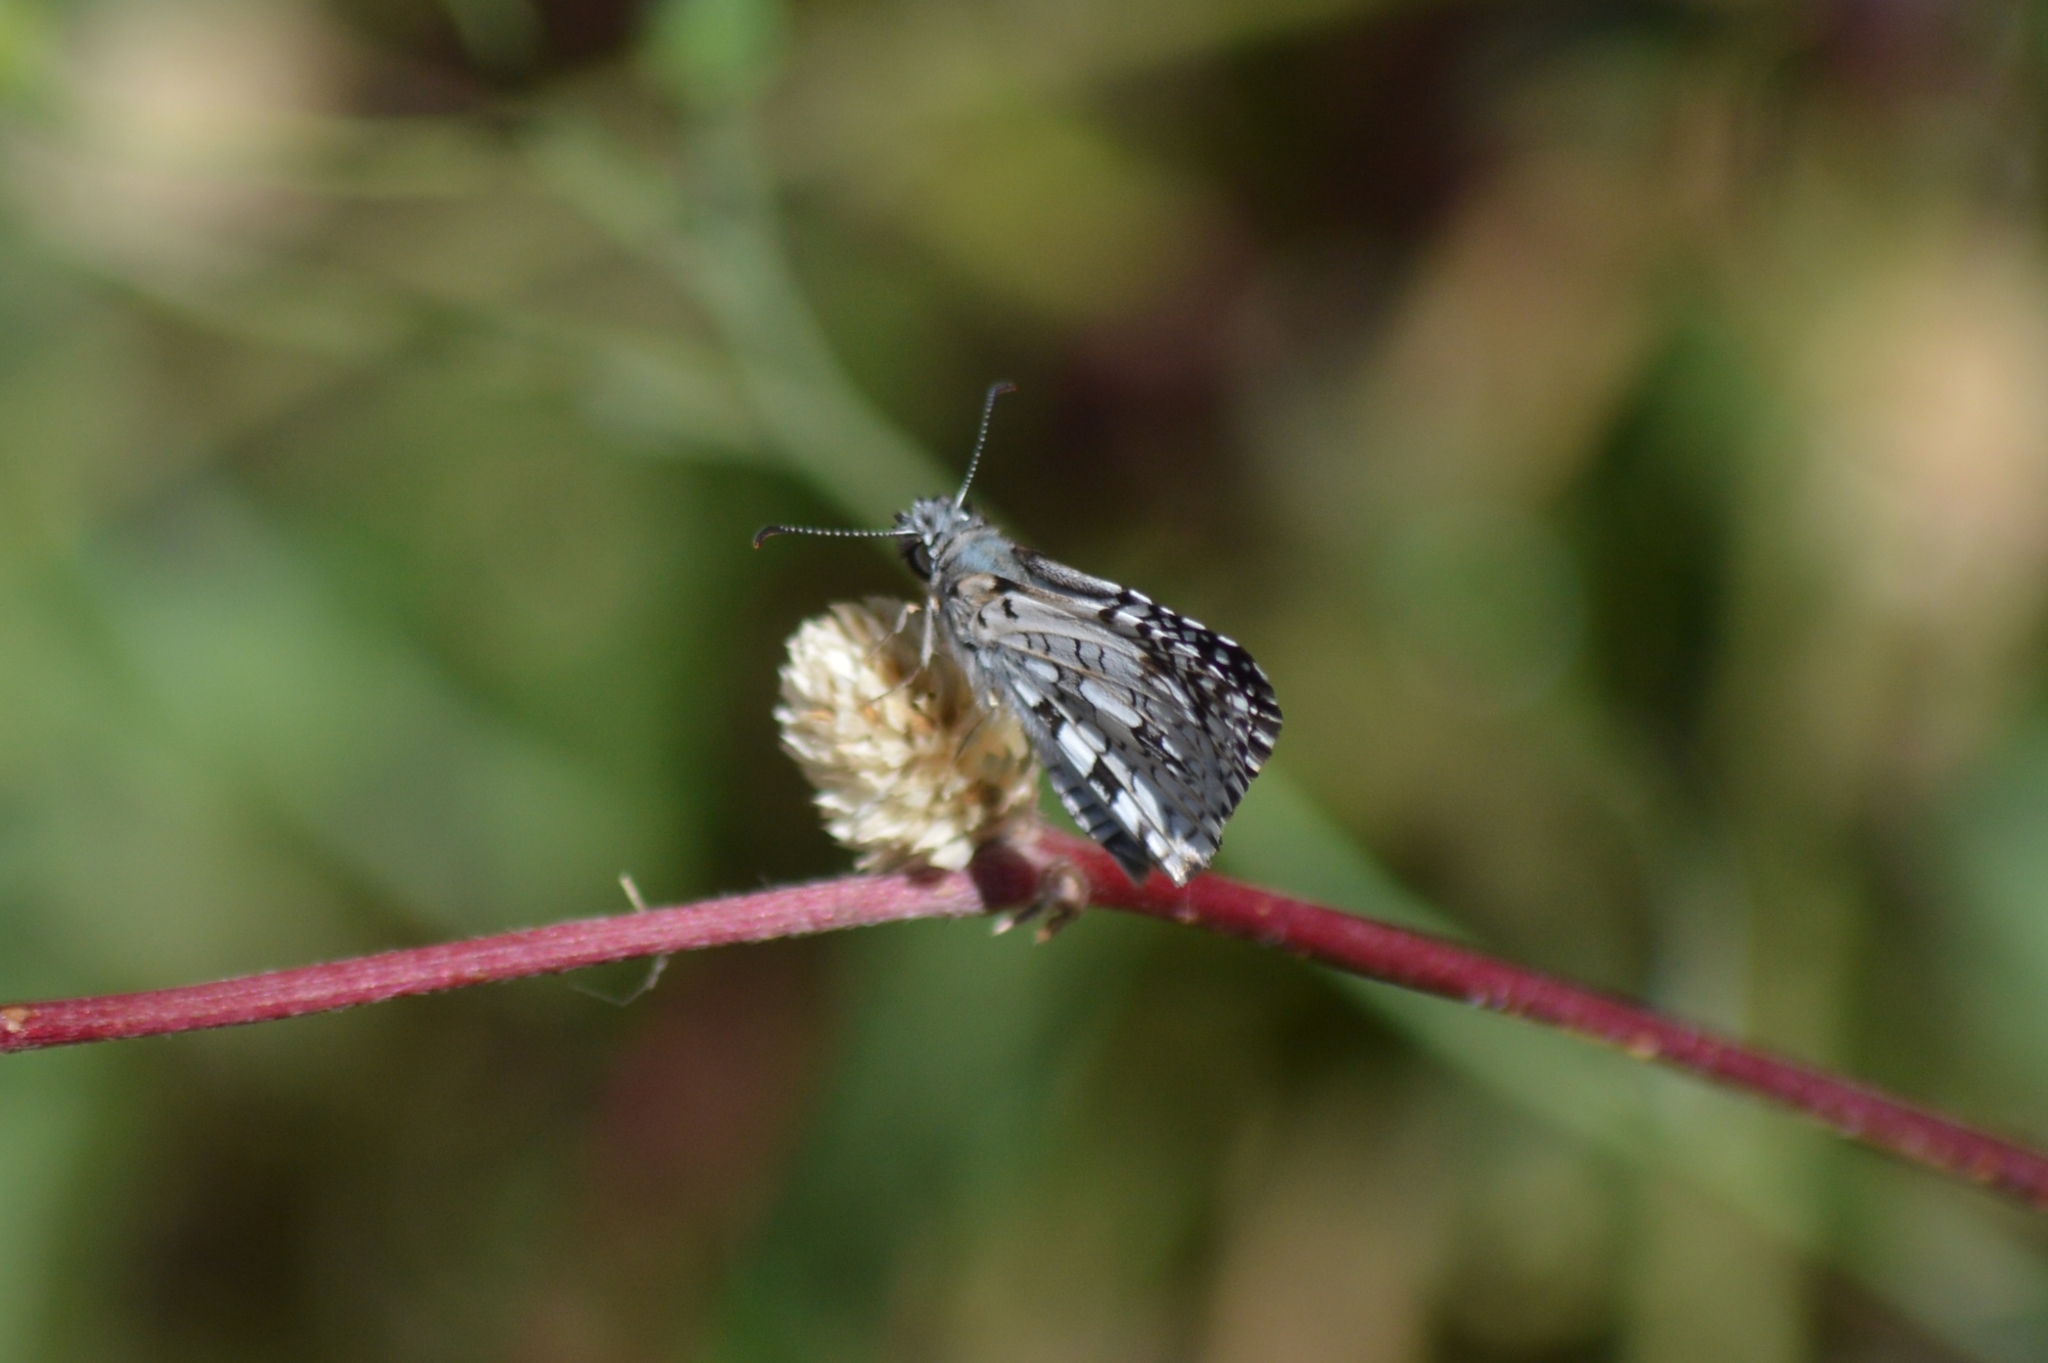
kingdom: Animalia
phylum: Arthropoda
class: Insecta
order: Lepidoptera
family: Hesperiidae
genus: Pyrgus
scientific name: Pyrgus oileus
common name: Tropical checkered-skipper
